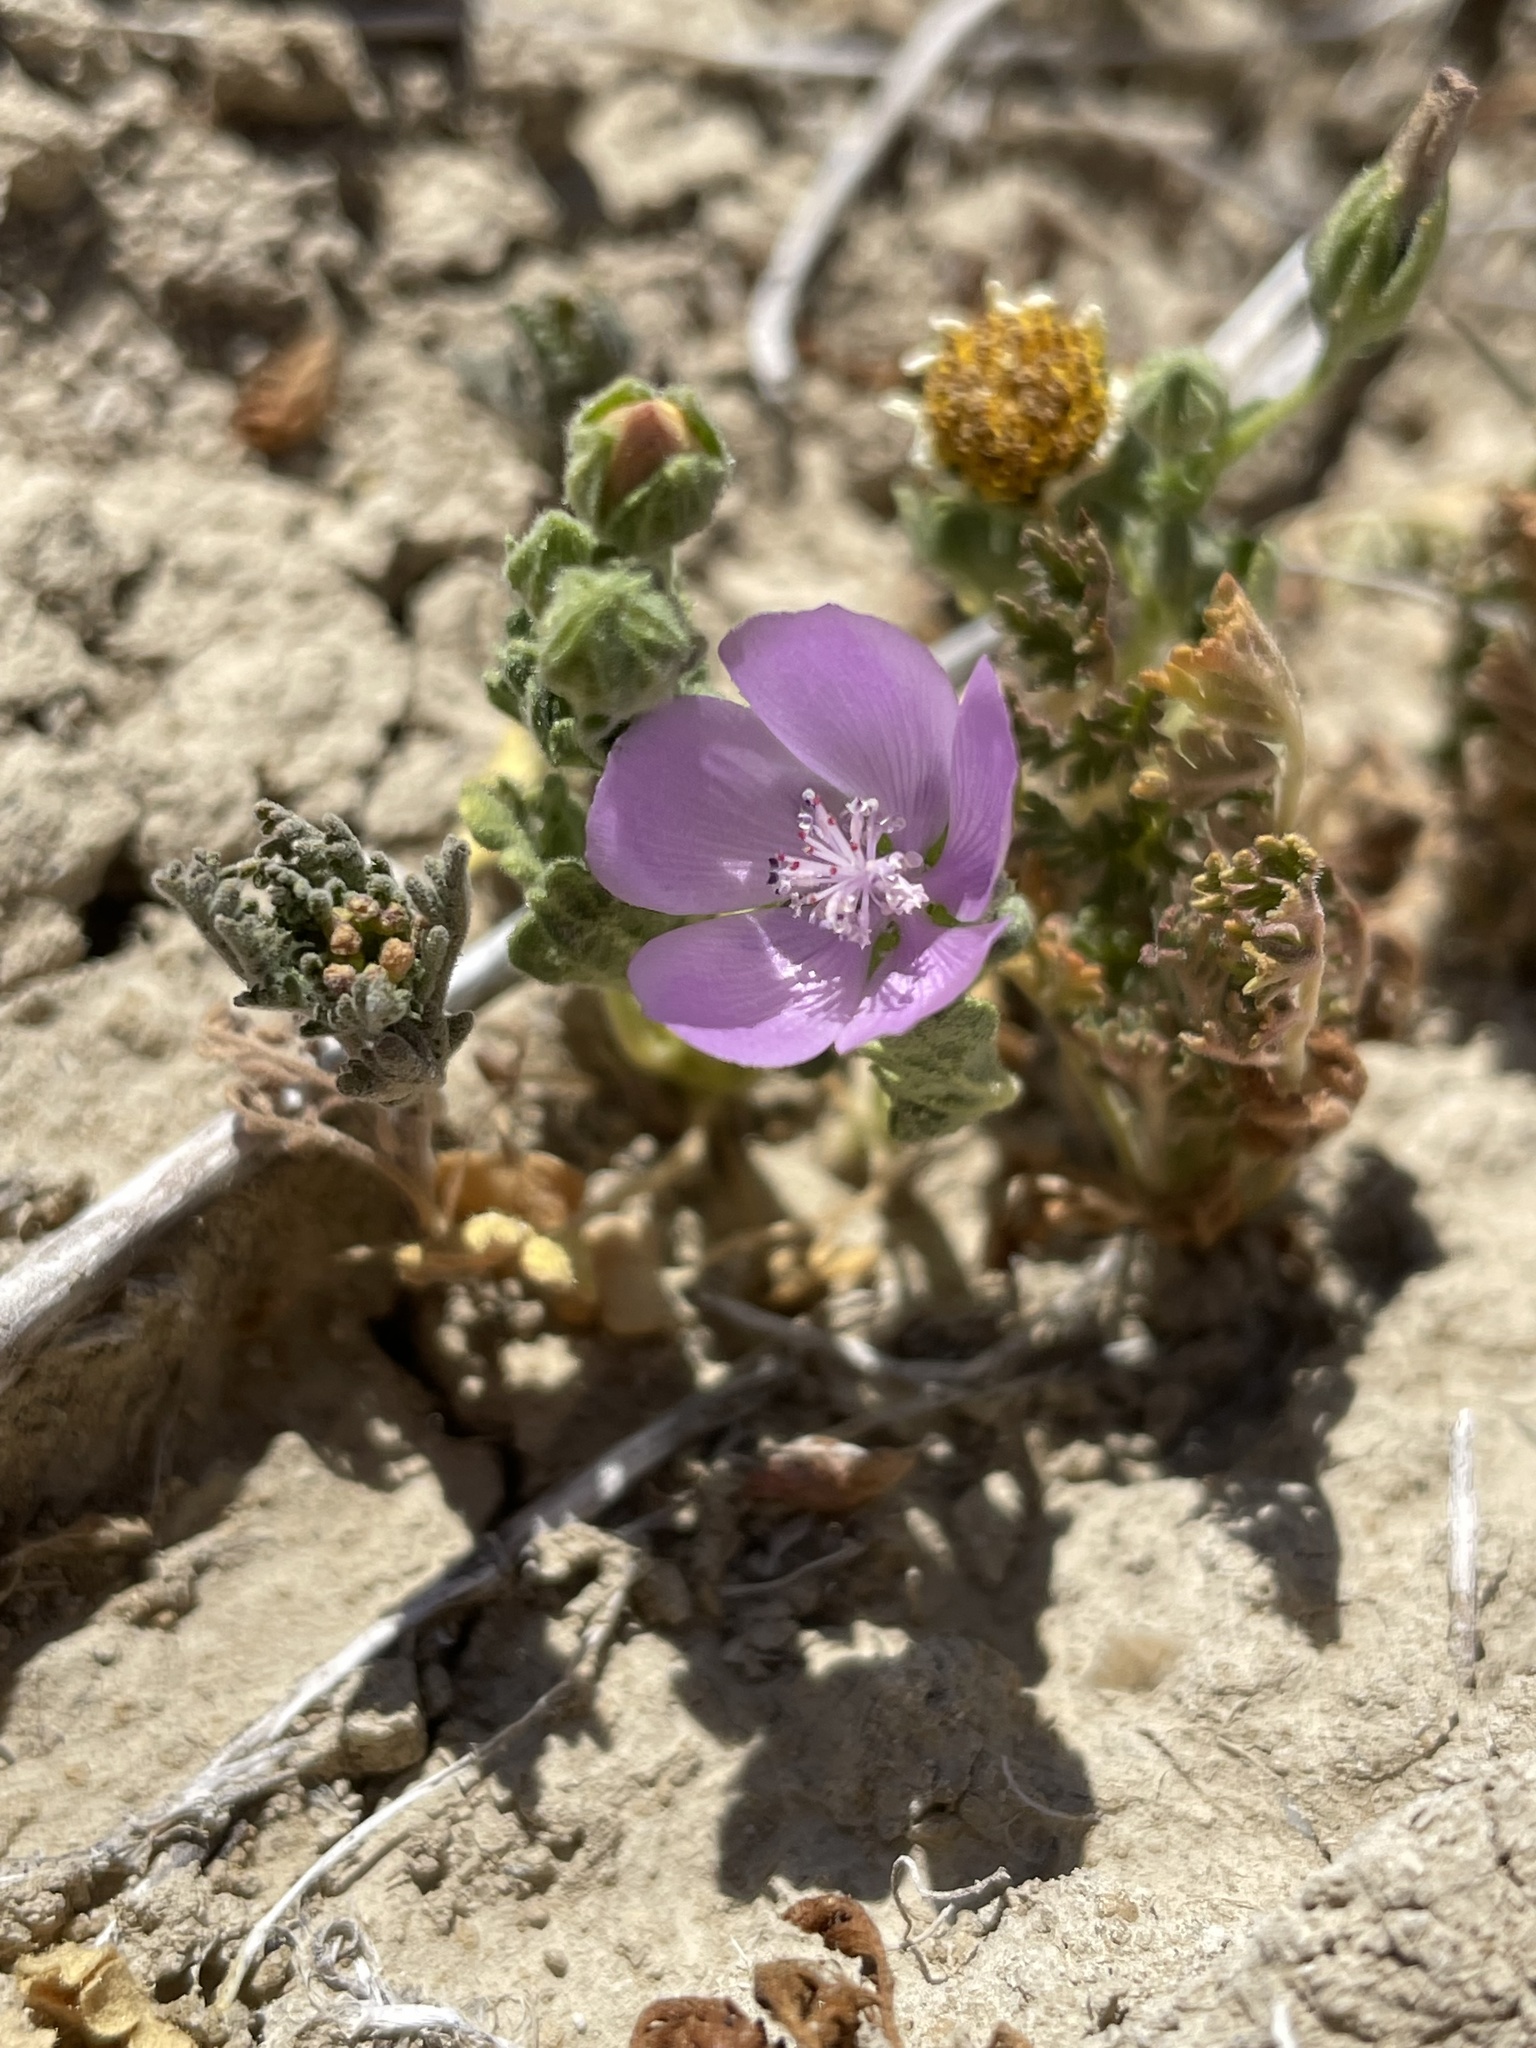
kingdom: Plantae
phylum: Tracheophyta
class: Magnoliopsida
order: Malvales
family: Malvaceae
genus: Eremalche
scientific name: Eremalche parryi
